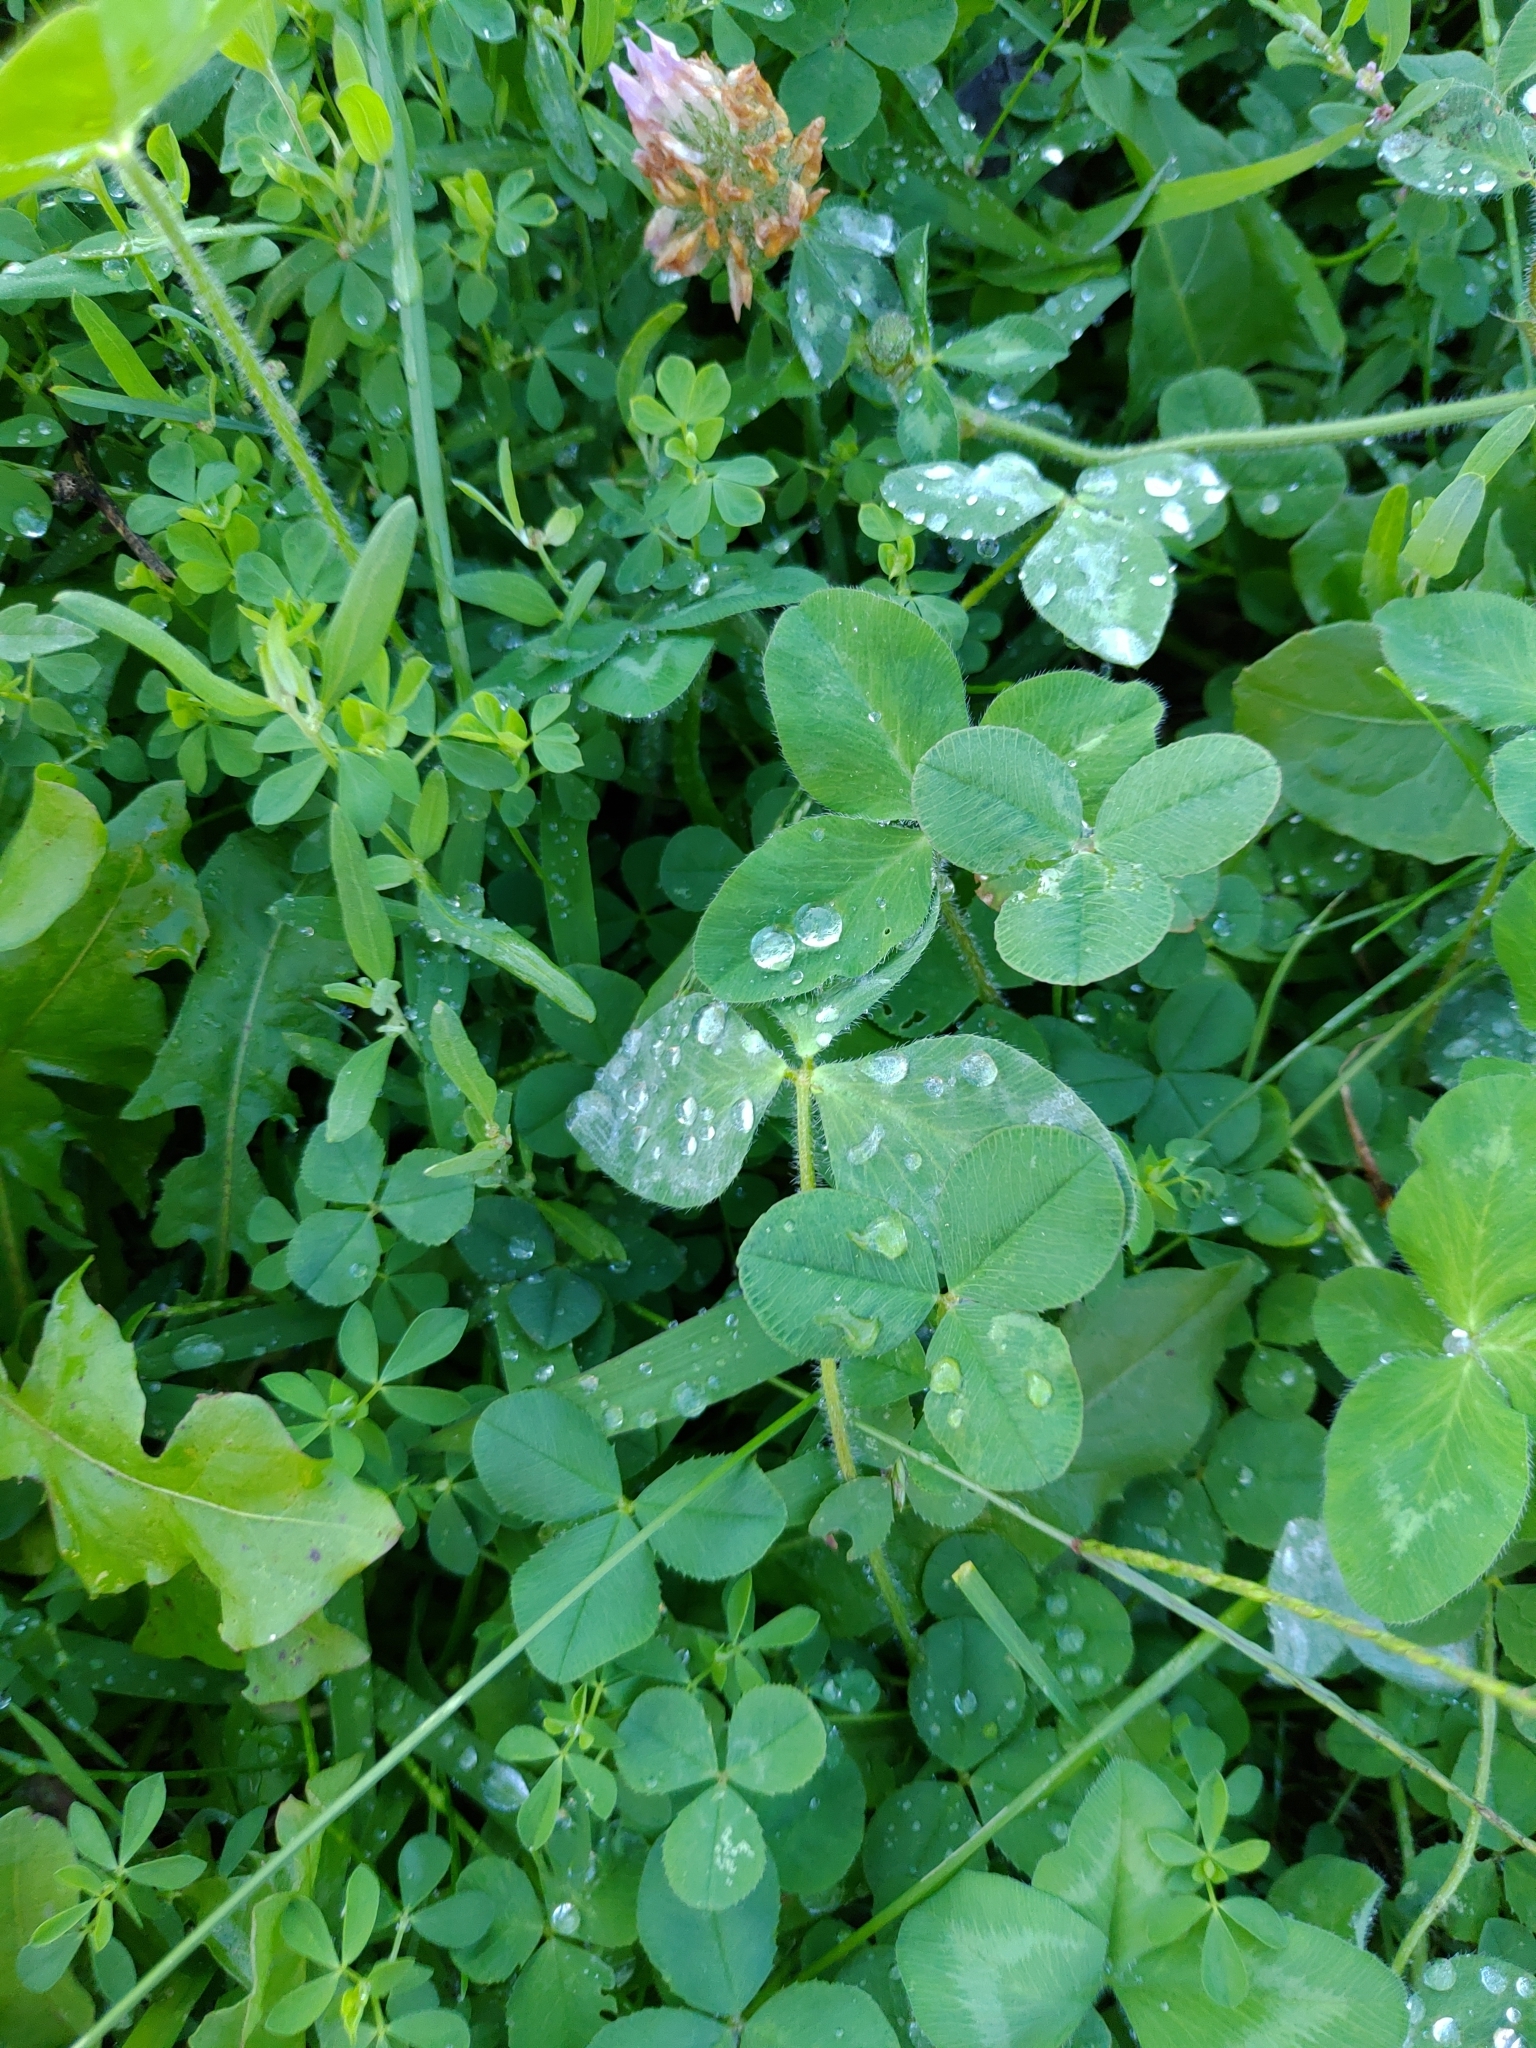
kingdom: Plantae
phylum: Tracheophyta
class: Magnoliopsida
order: Fabales
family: Fabaceae
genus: Trifolium
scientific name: Trifolium pratense
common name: Red clover
